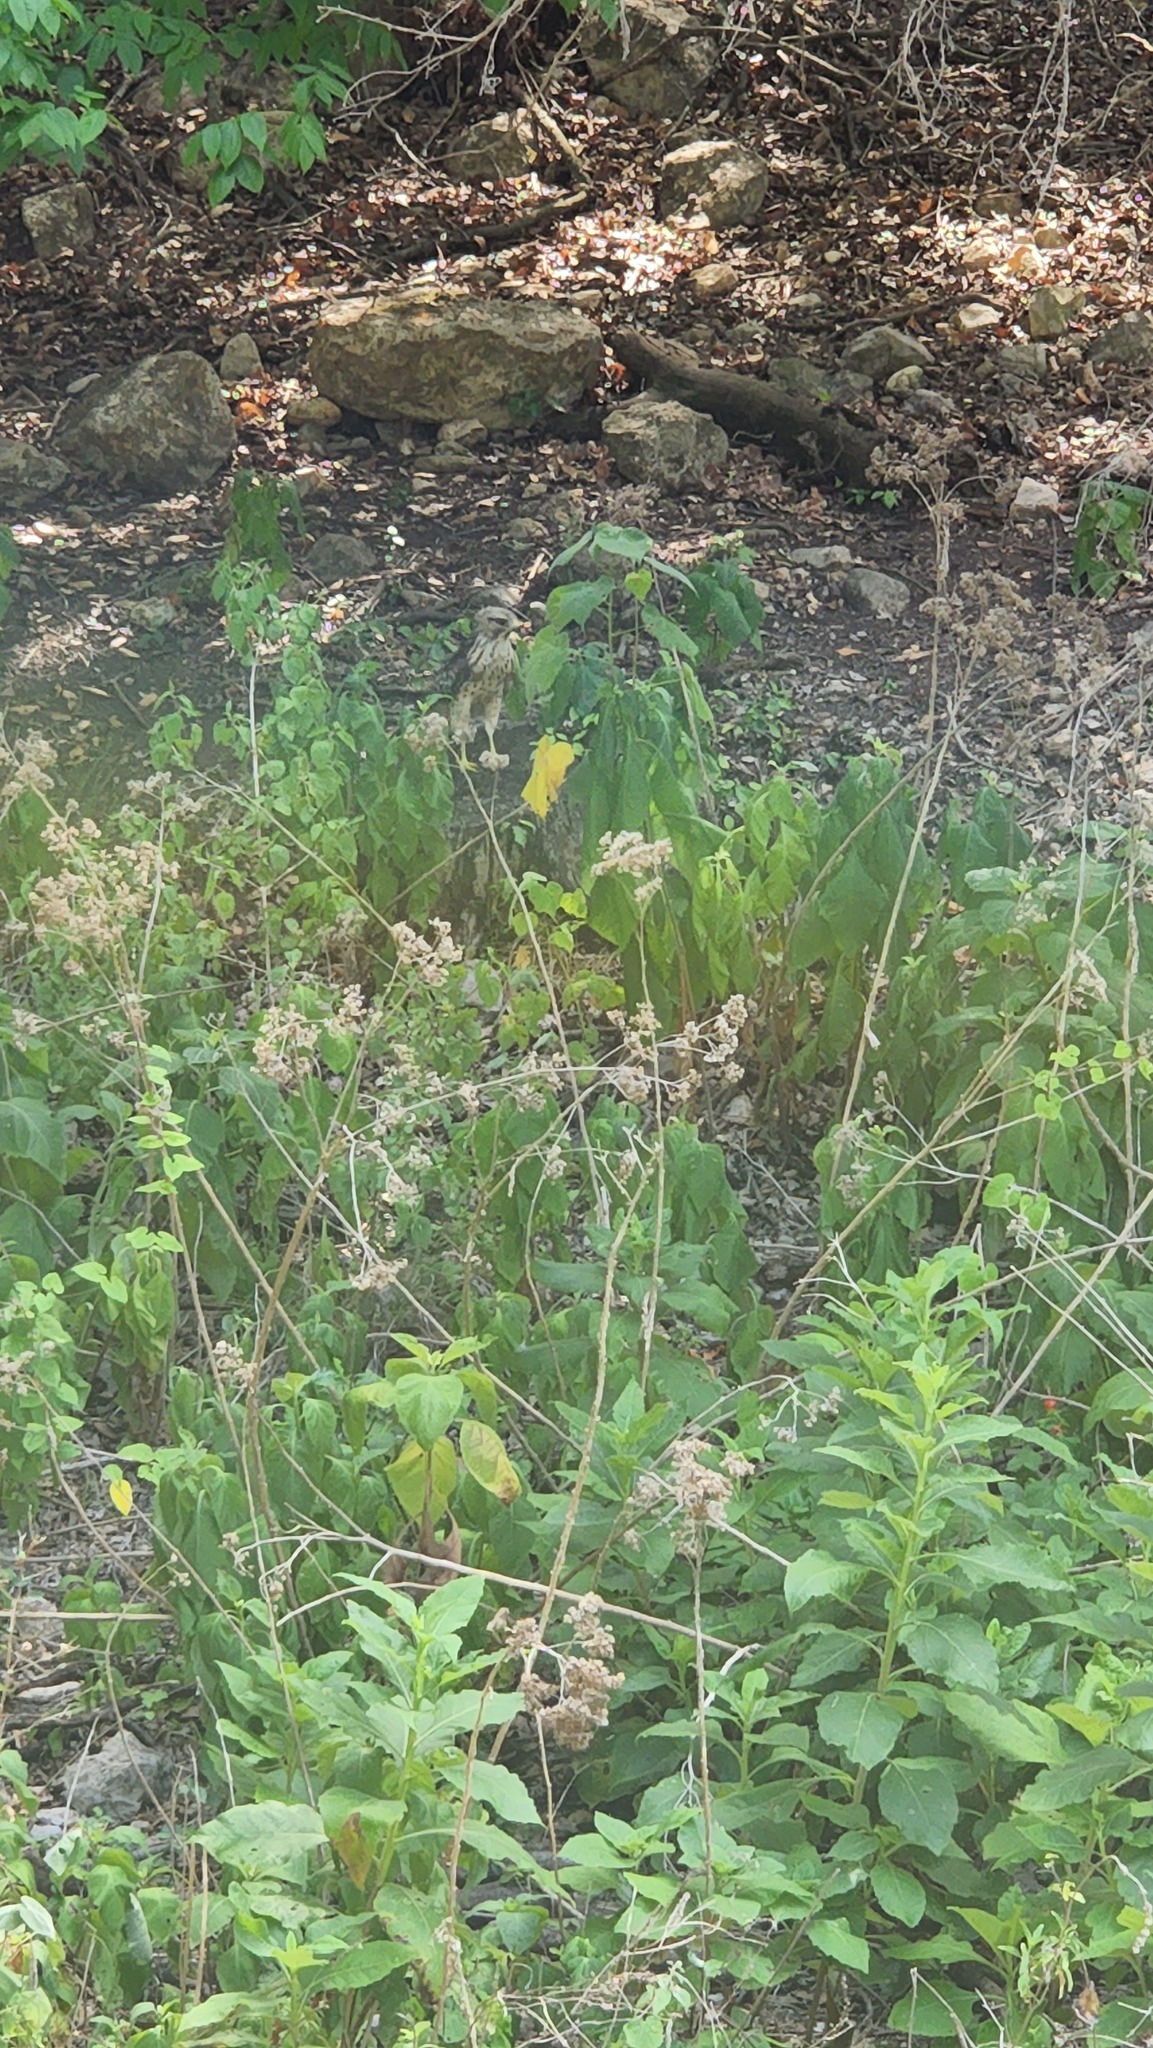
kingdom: Animalia
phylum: Chordata
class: Aves
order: Accipitriformes
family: Accipitridae
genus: Buteo
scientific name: Buteo lineatus
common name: Red-shouldered hawk
